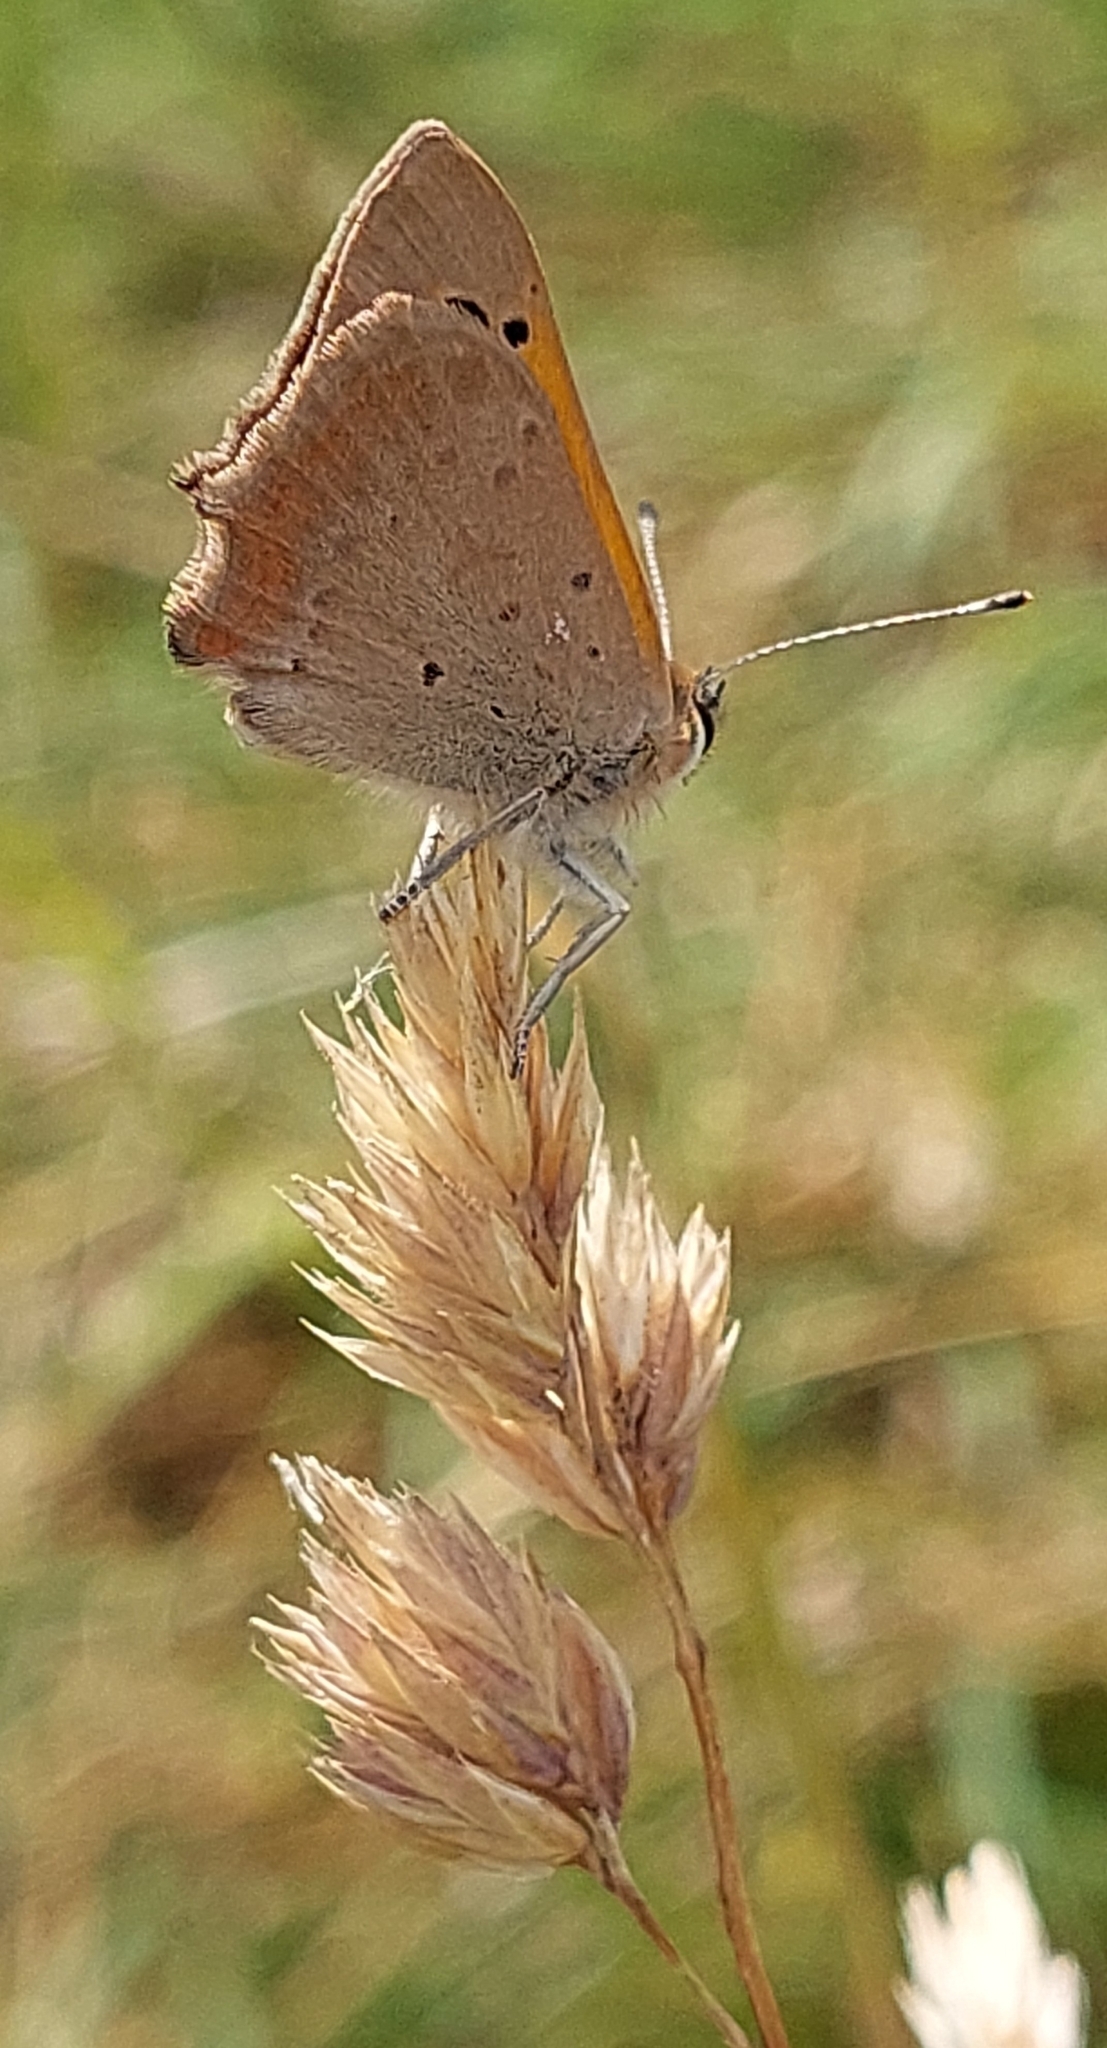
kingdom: Animalia
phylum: Arthropoda
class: Insecta
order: Lepidoptera
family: Lycaenidae
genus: Lycaena
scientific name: Lycaena phlaeas
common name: Small copper
